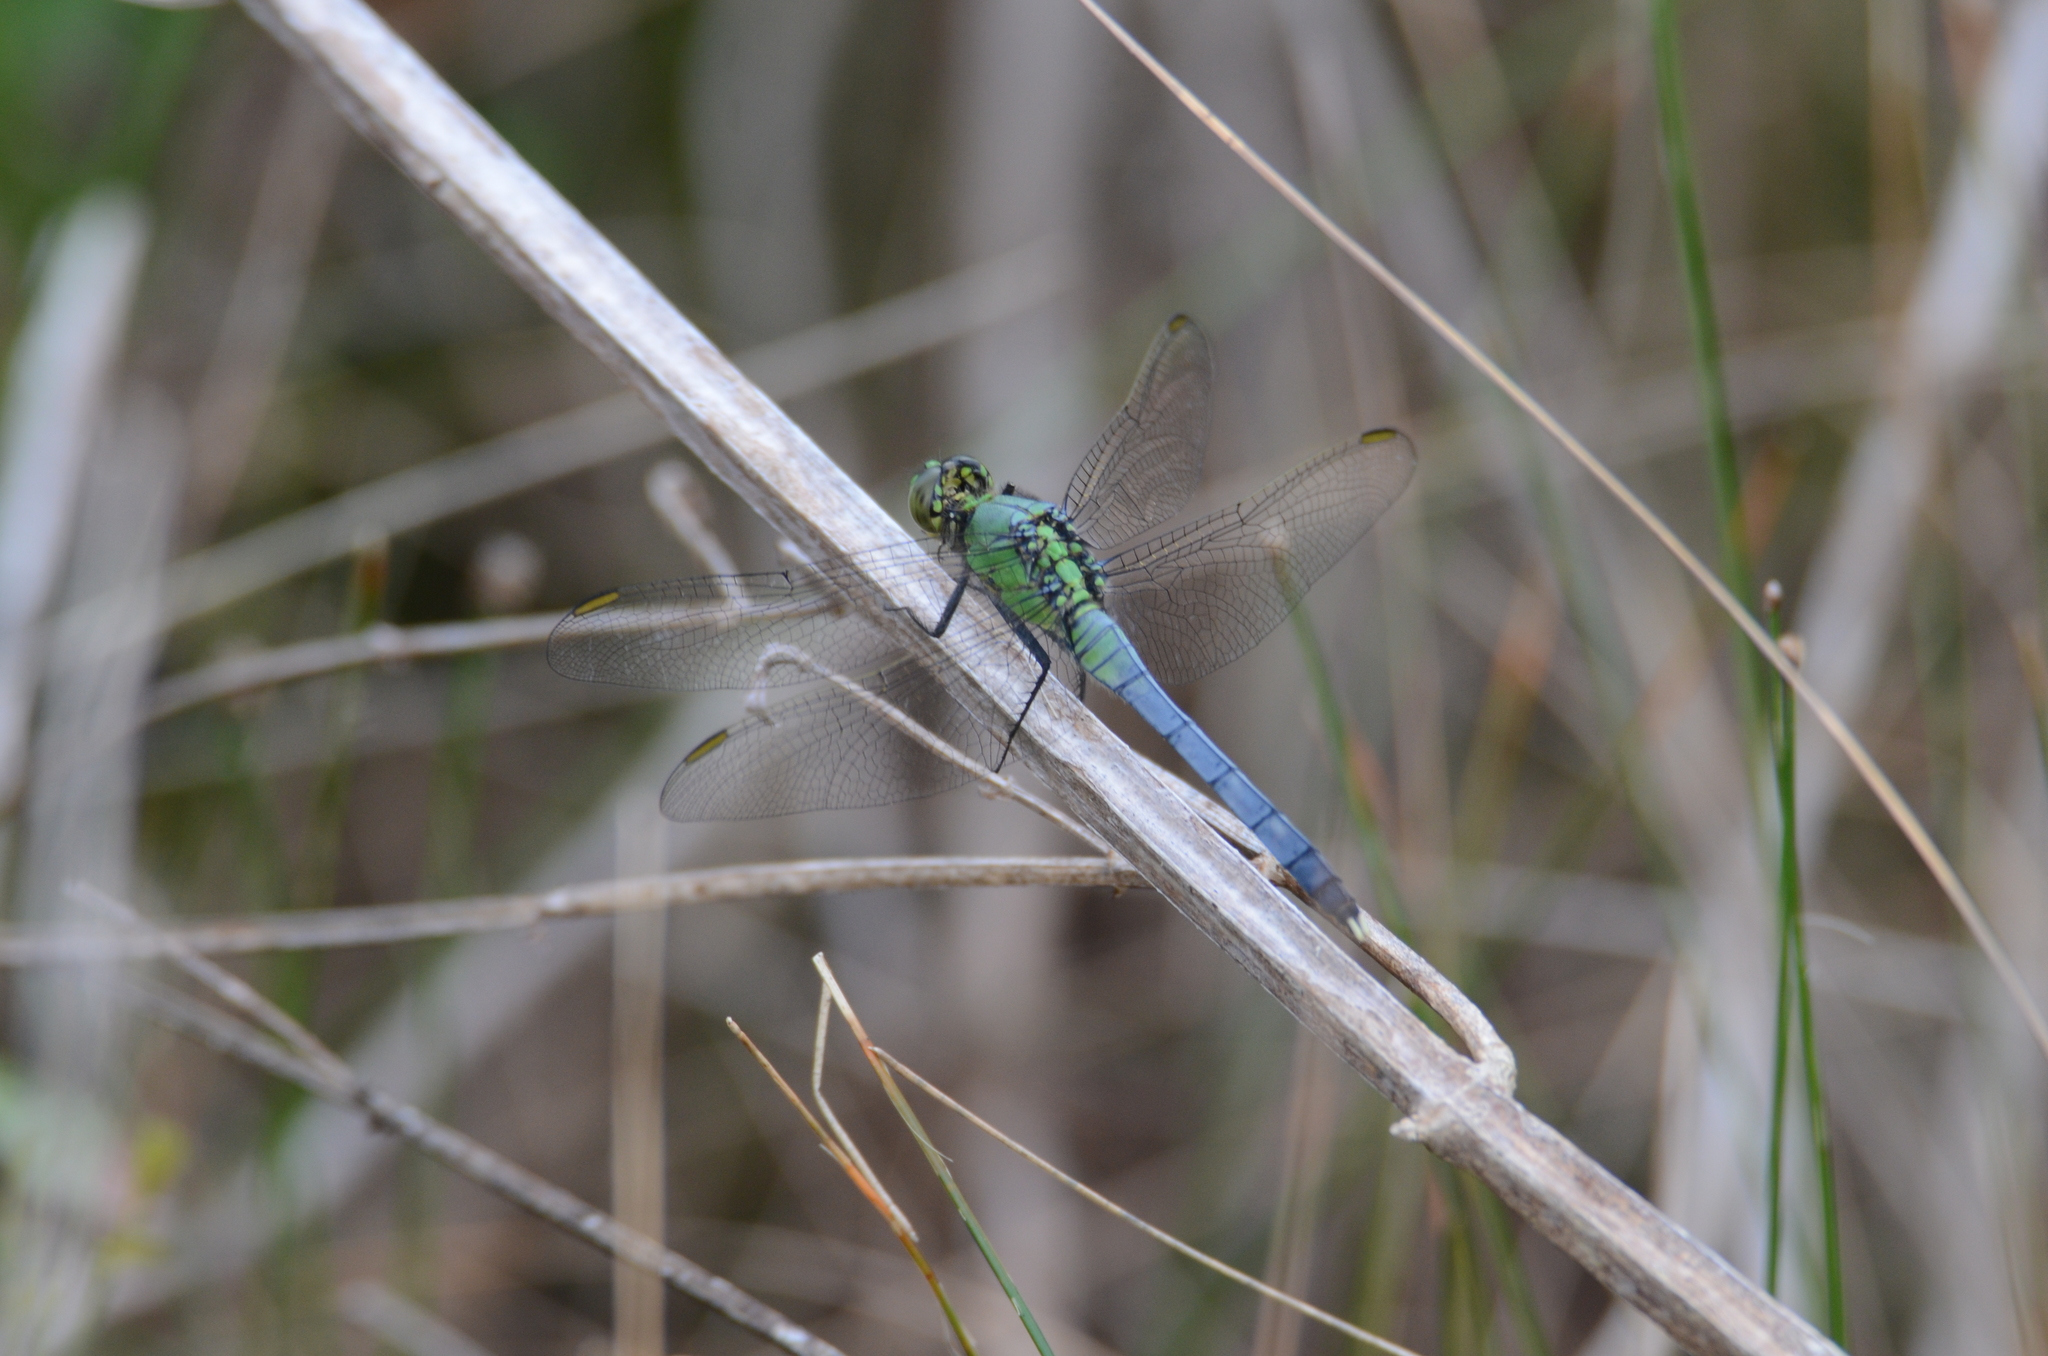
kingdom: Animalia
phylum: Arthropoda
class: Insecta
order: Odonata
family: Libellulidae
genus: Erythemis
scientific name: Erythemis simplicicollis
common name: Eastern pondhawk
